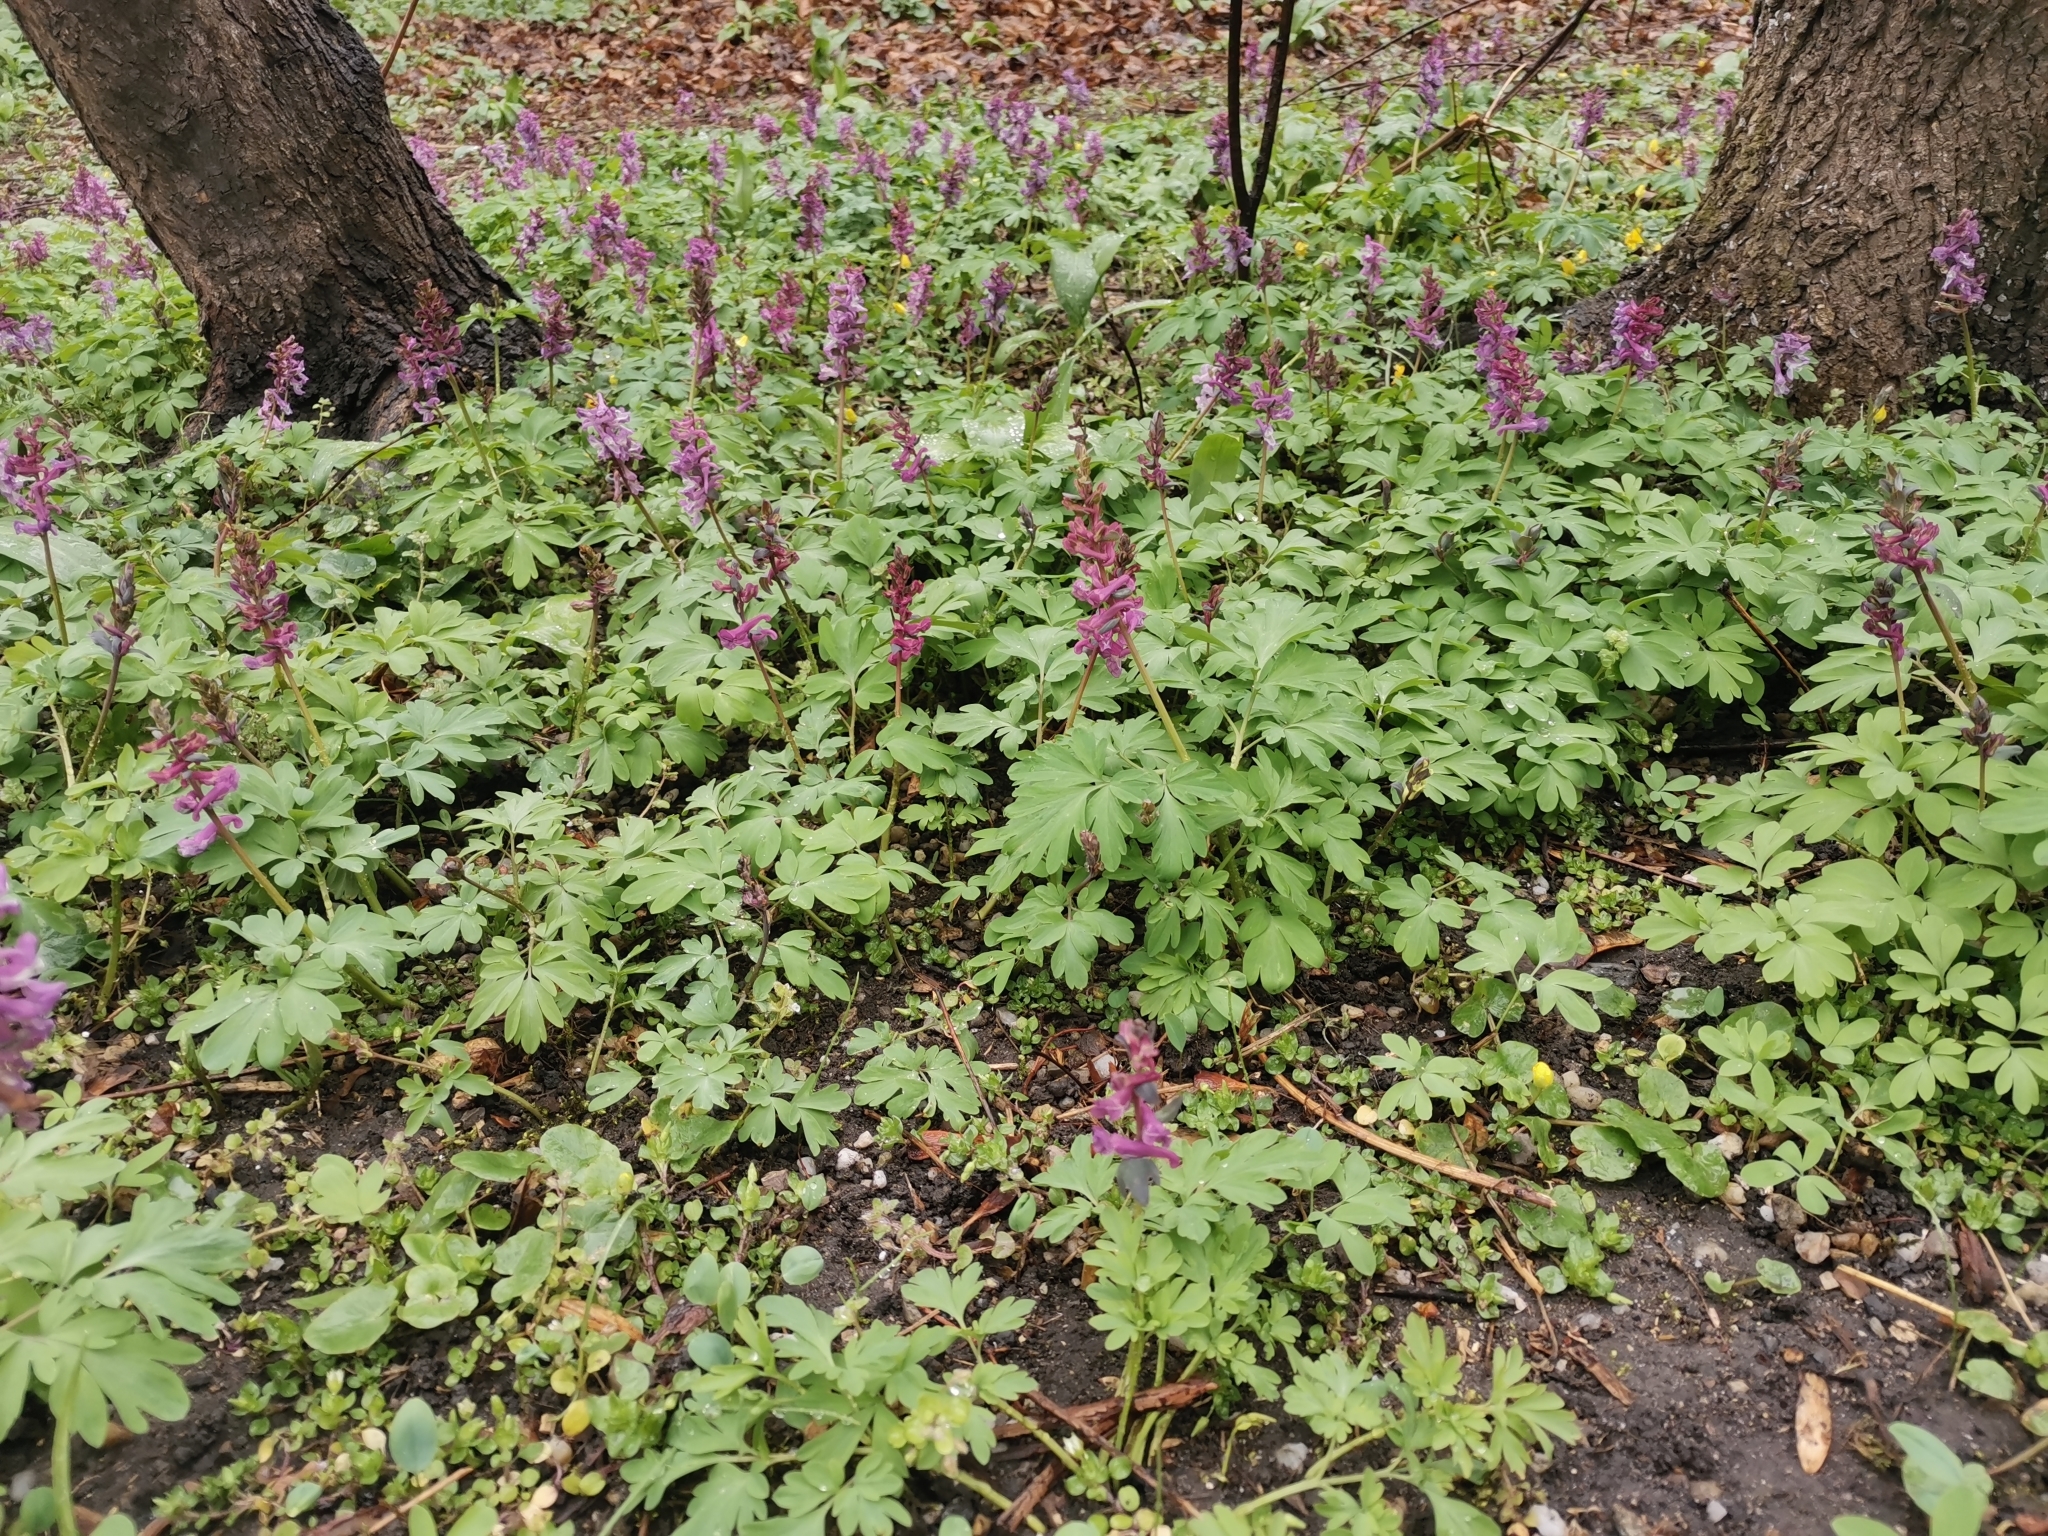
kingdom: Plantae
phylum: Tracheophyta
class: Magnoliopsida
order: Ranunculales
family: Papaveraceae
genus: Corydalis
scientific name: Corydalis cava
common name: Hollowroot
